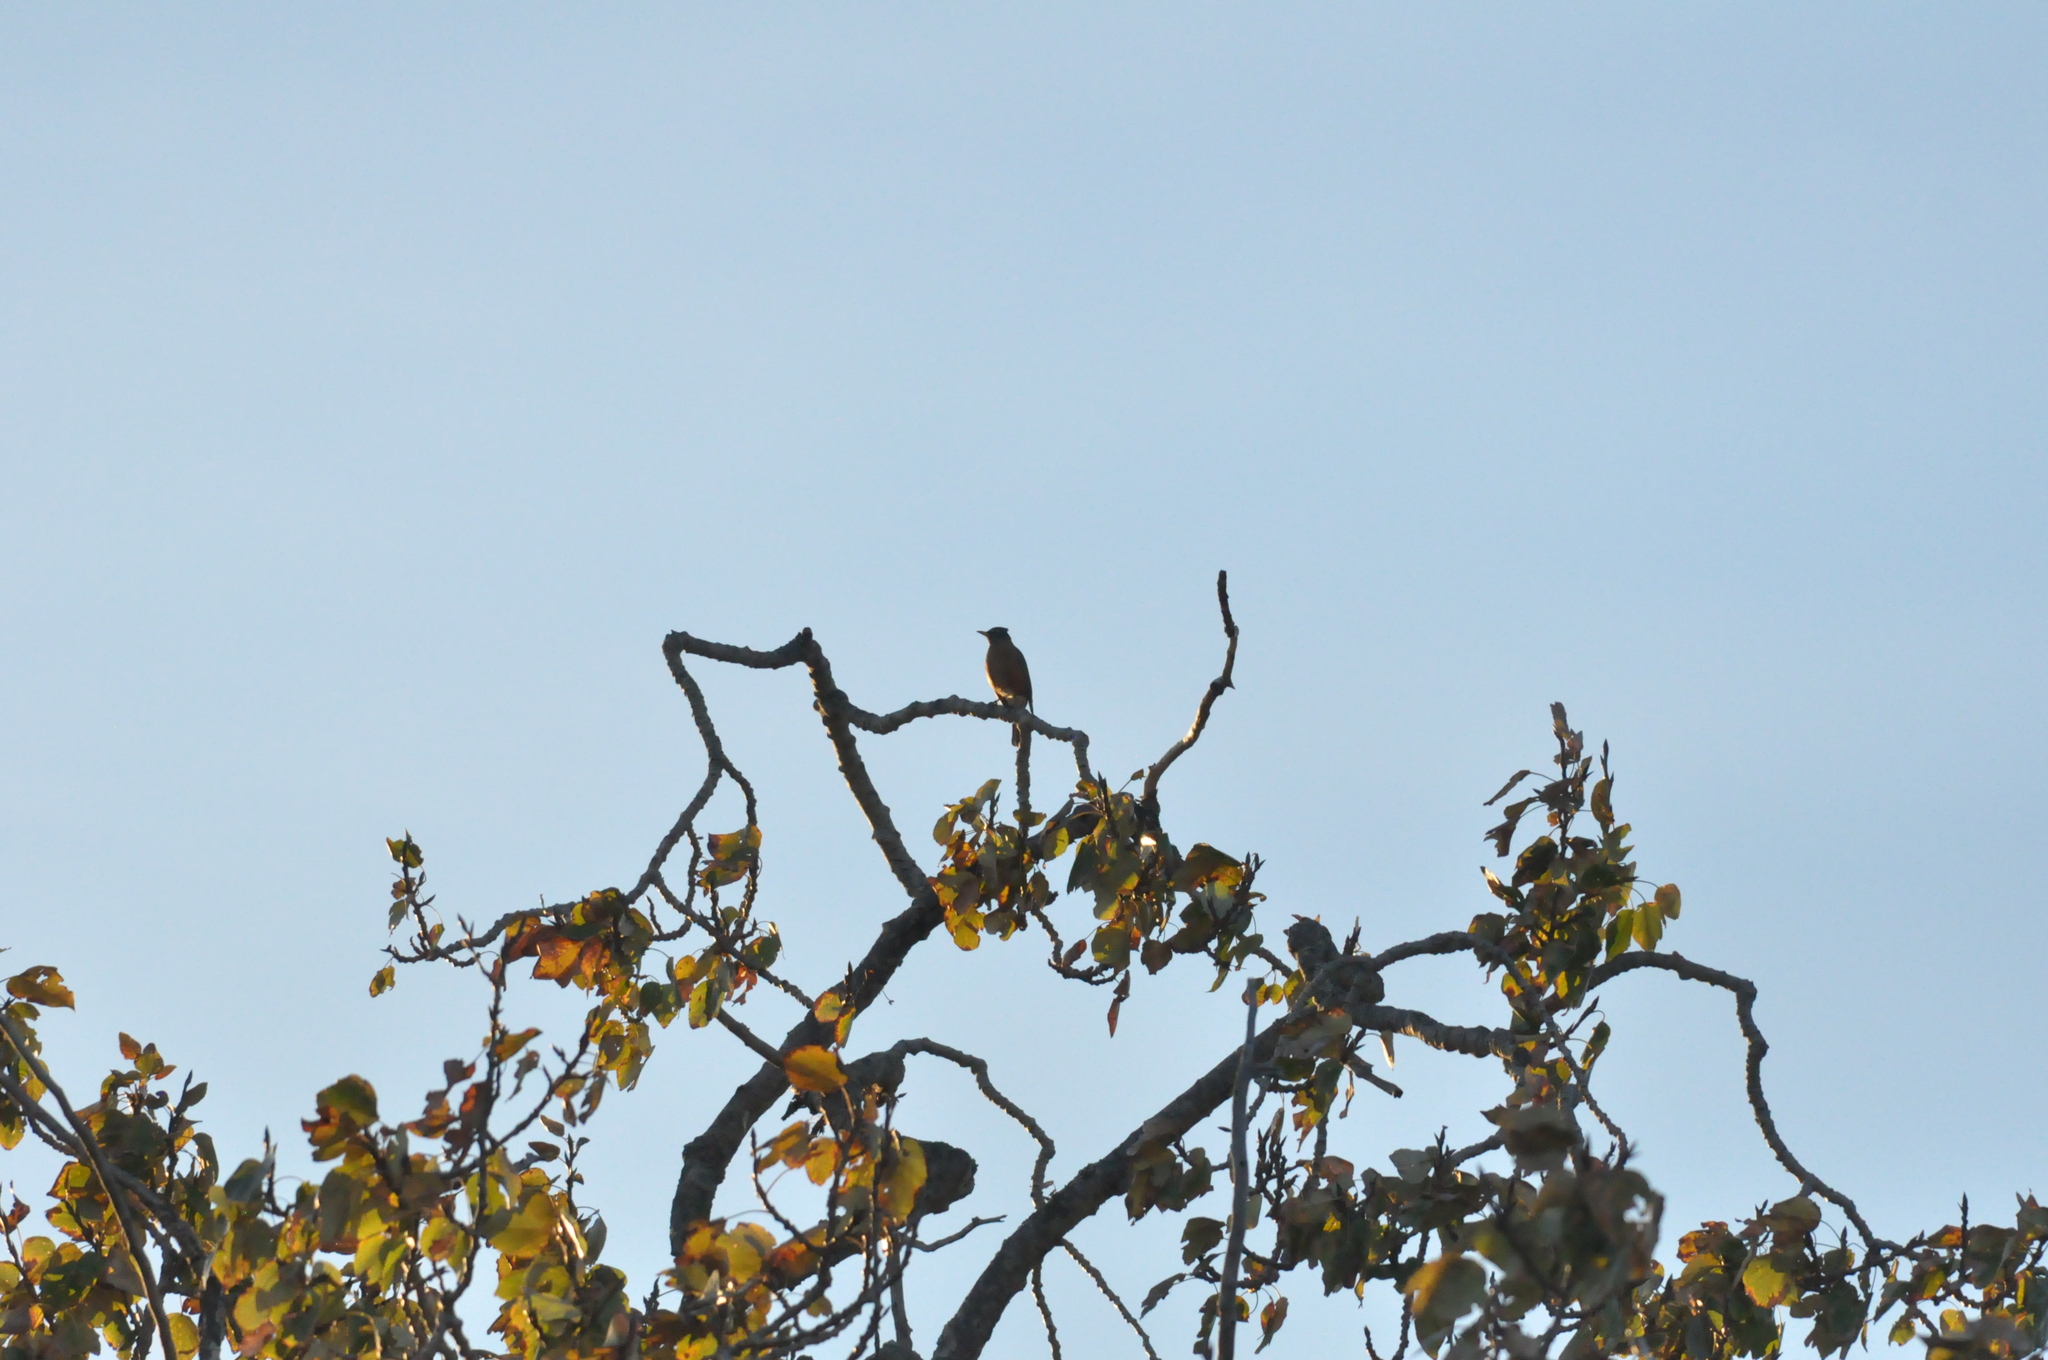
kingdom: Animalia
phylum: Chordata
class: Aves
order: Passeriformes
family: Turdidae
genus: Turdus
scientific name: Turdus migratorius
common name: American robin
